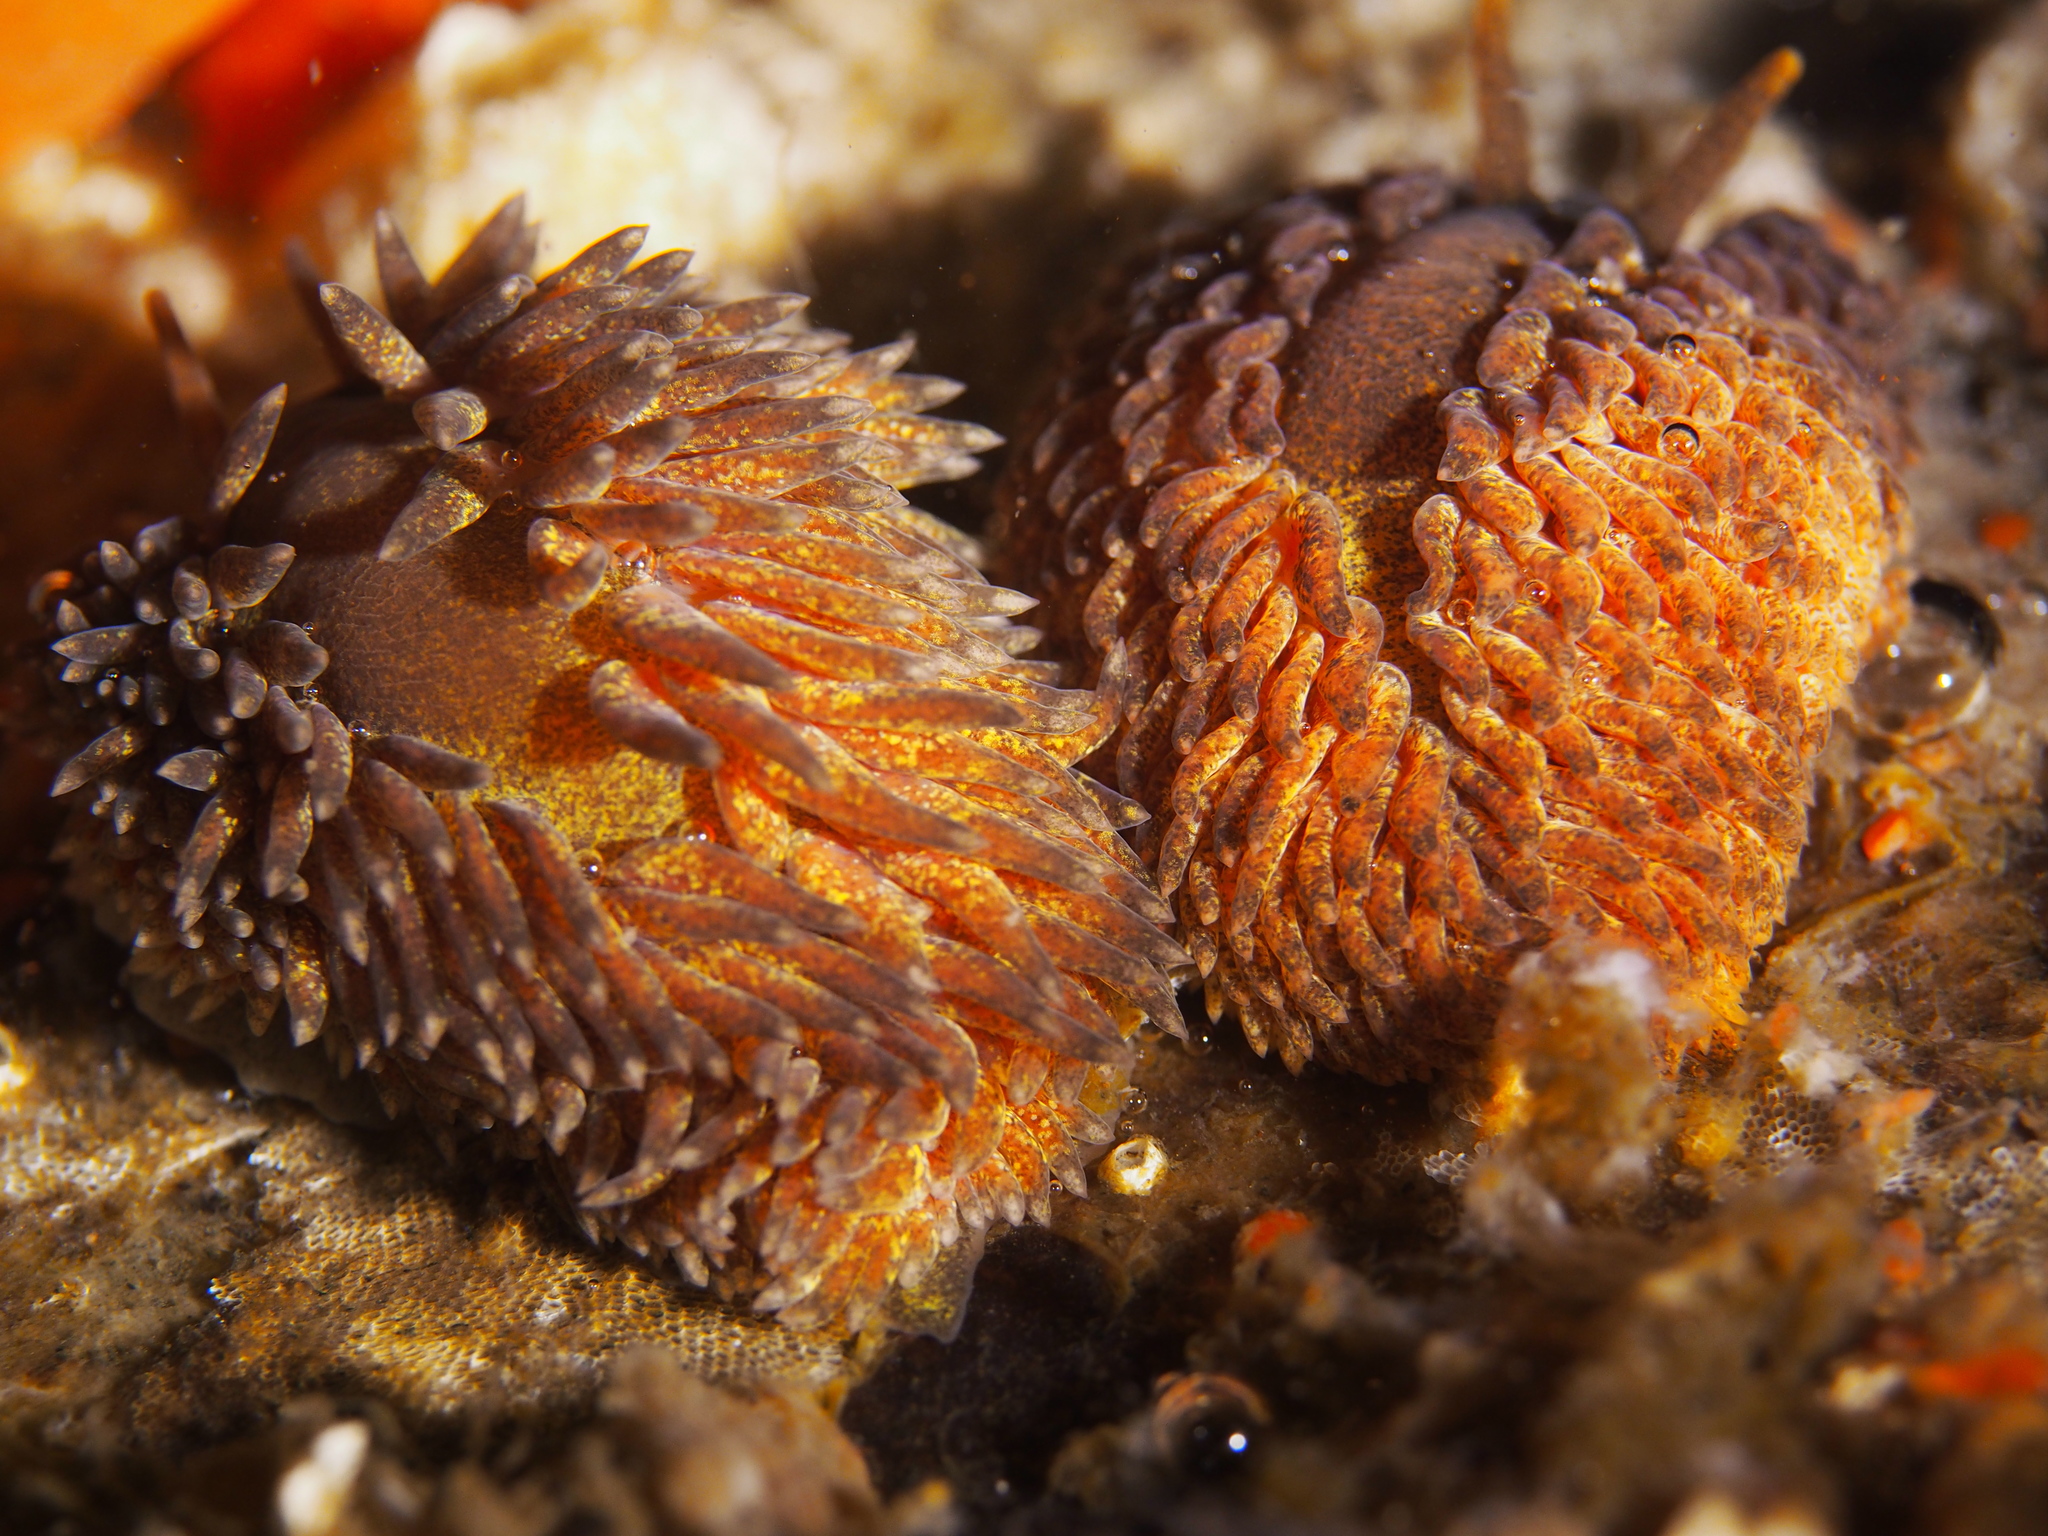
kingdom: Animalia
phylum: Mollusca
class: Gastropoda
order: Nudibranchia
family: Aeolidiidae
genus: Aeolidia
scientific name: Aeolidia papillosa
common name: Common grey sea slug
